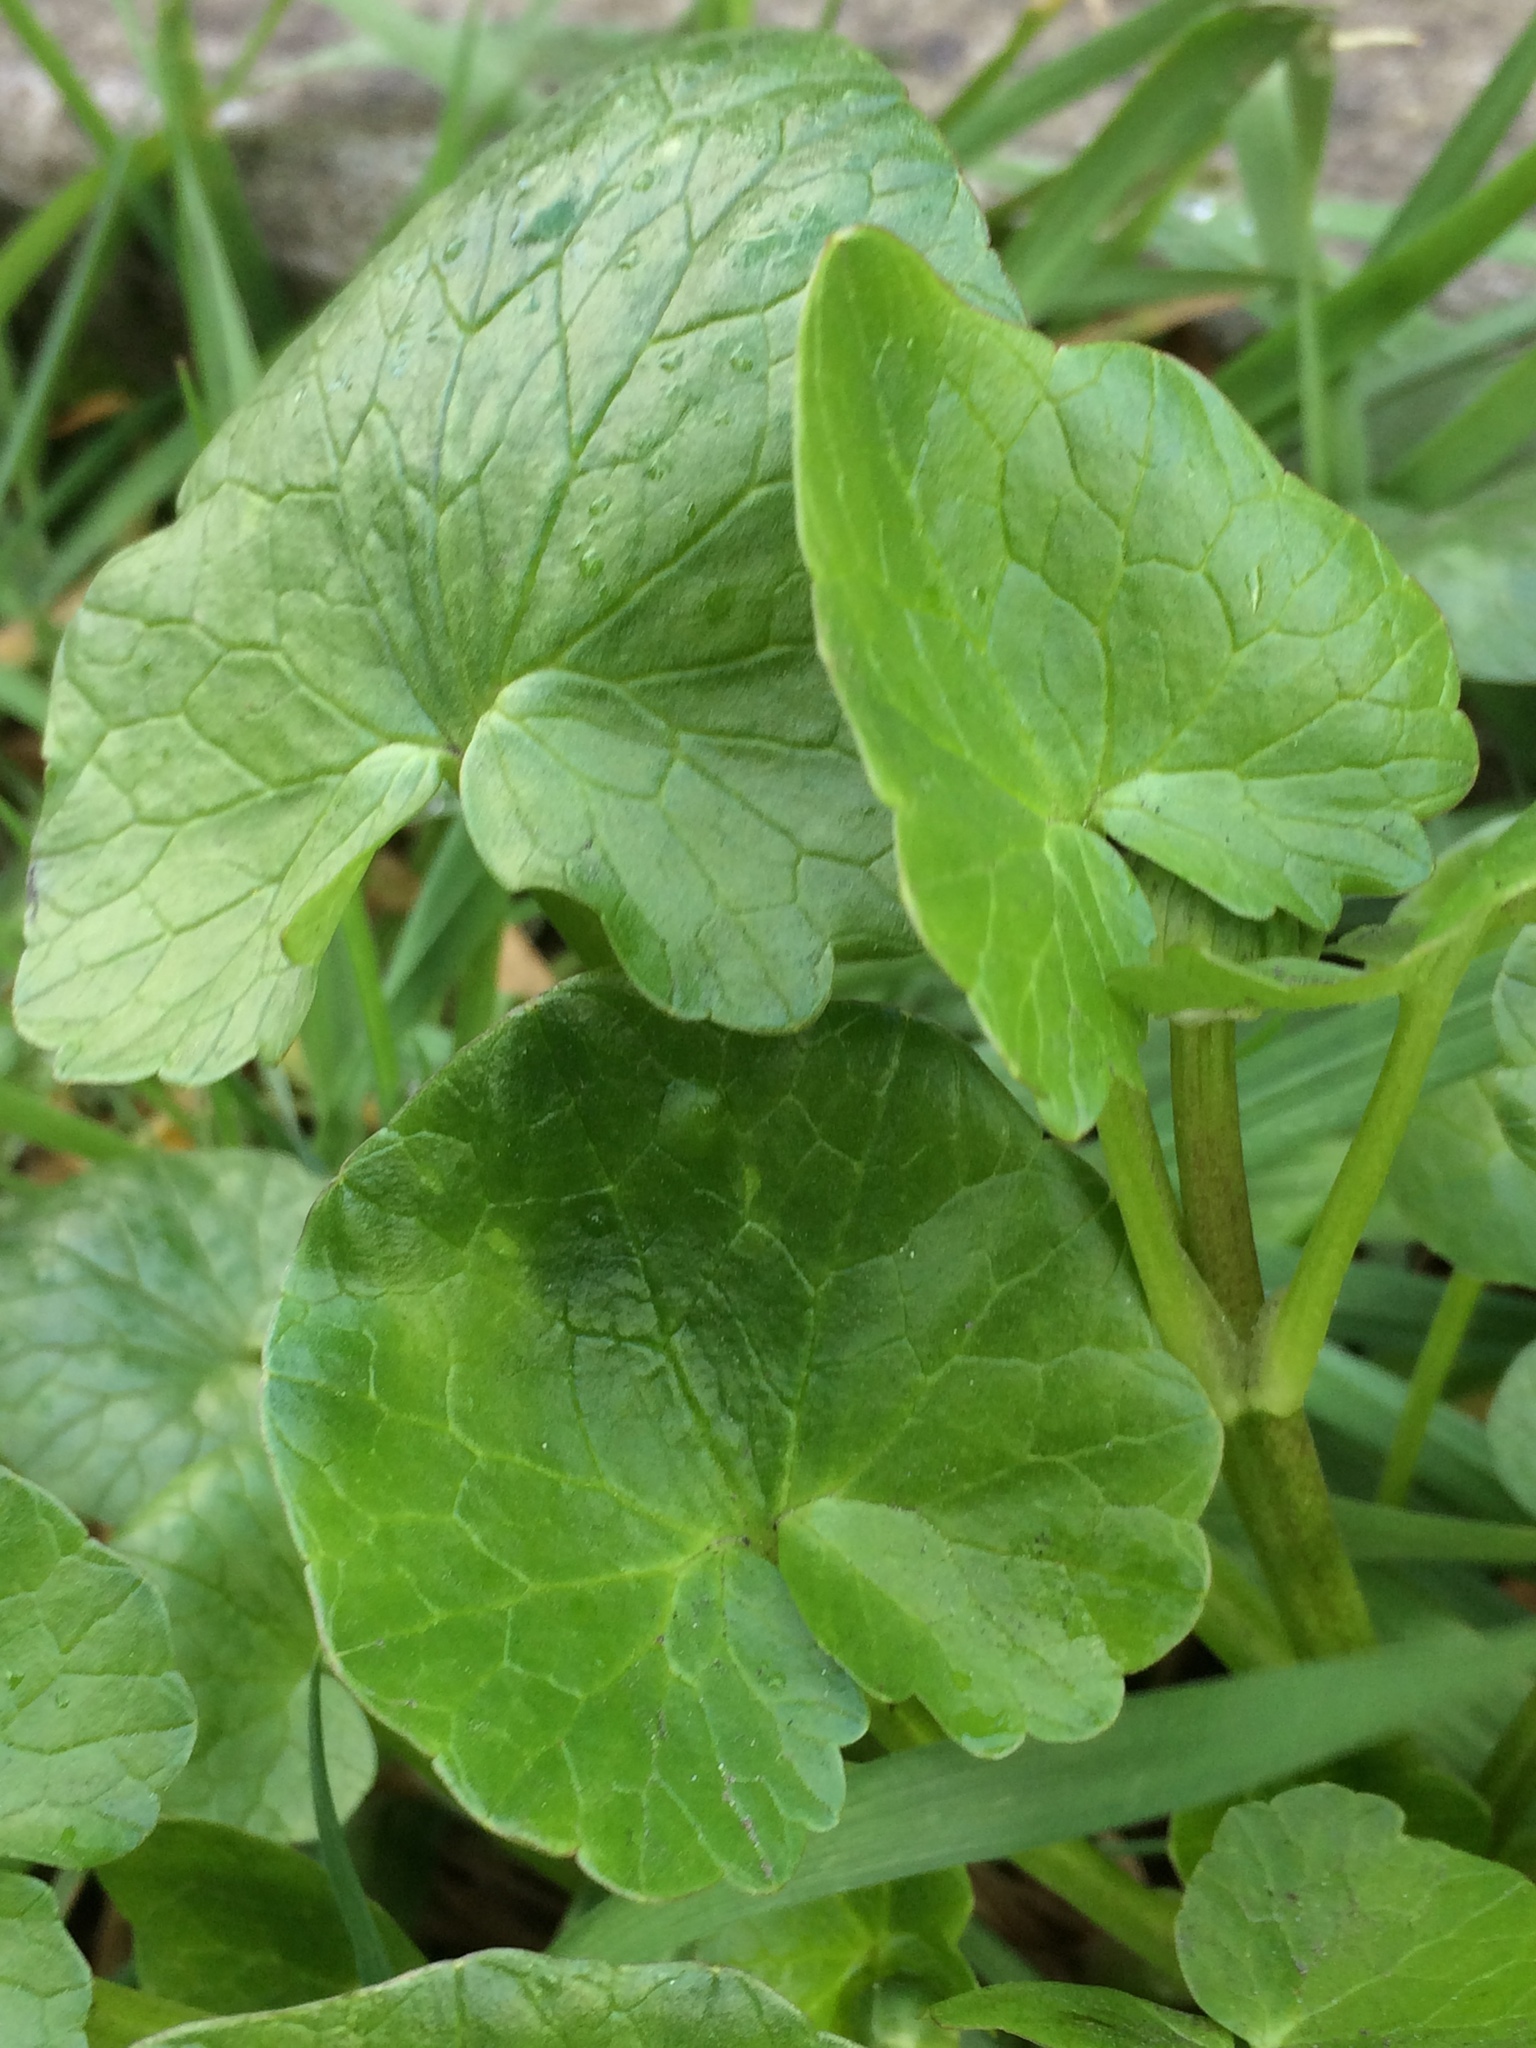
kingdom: Plantae
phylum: Tracheophyta
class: Magnoliopsida
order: Ranunculales
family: Ranunculaceae
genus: Ficaria
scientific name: Ficaria verna
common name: Lesser celandine
